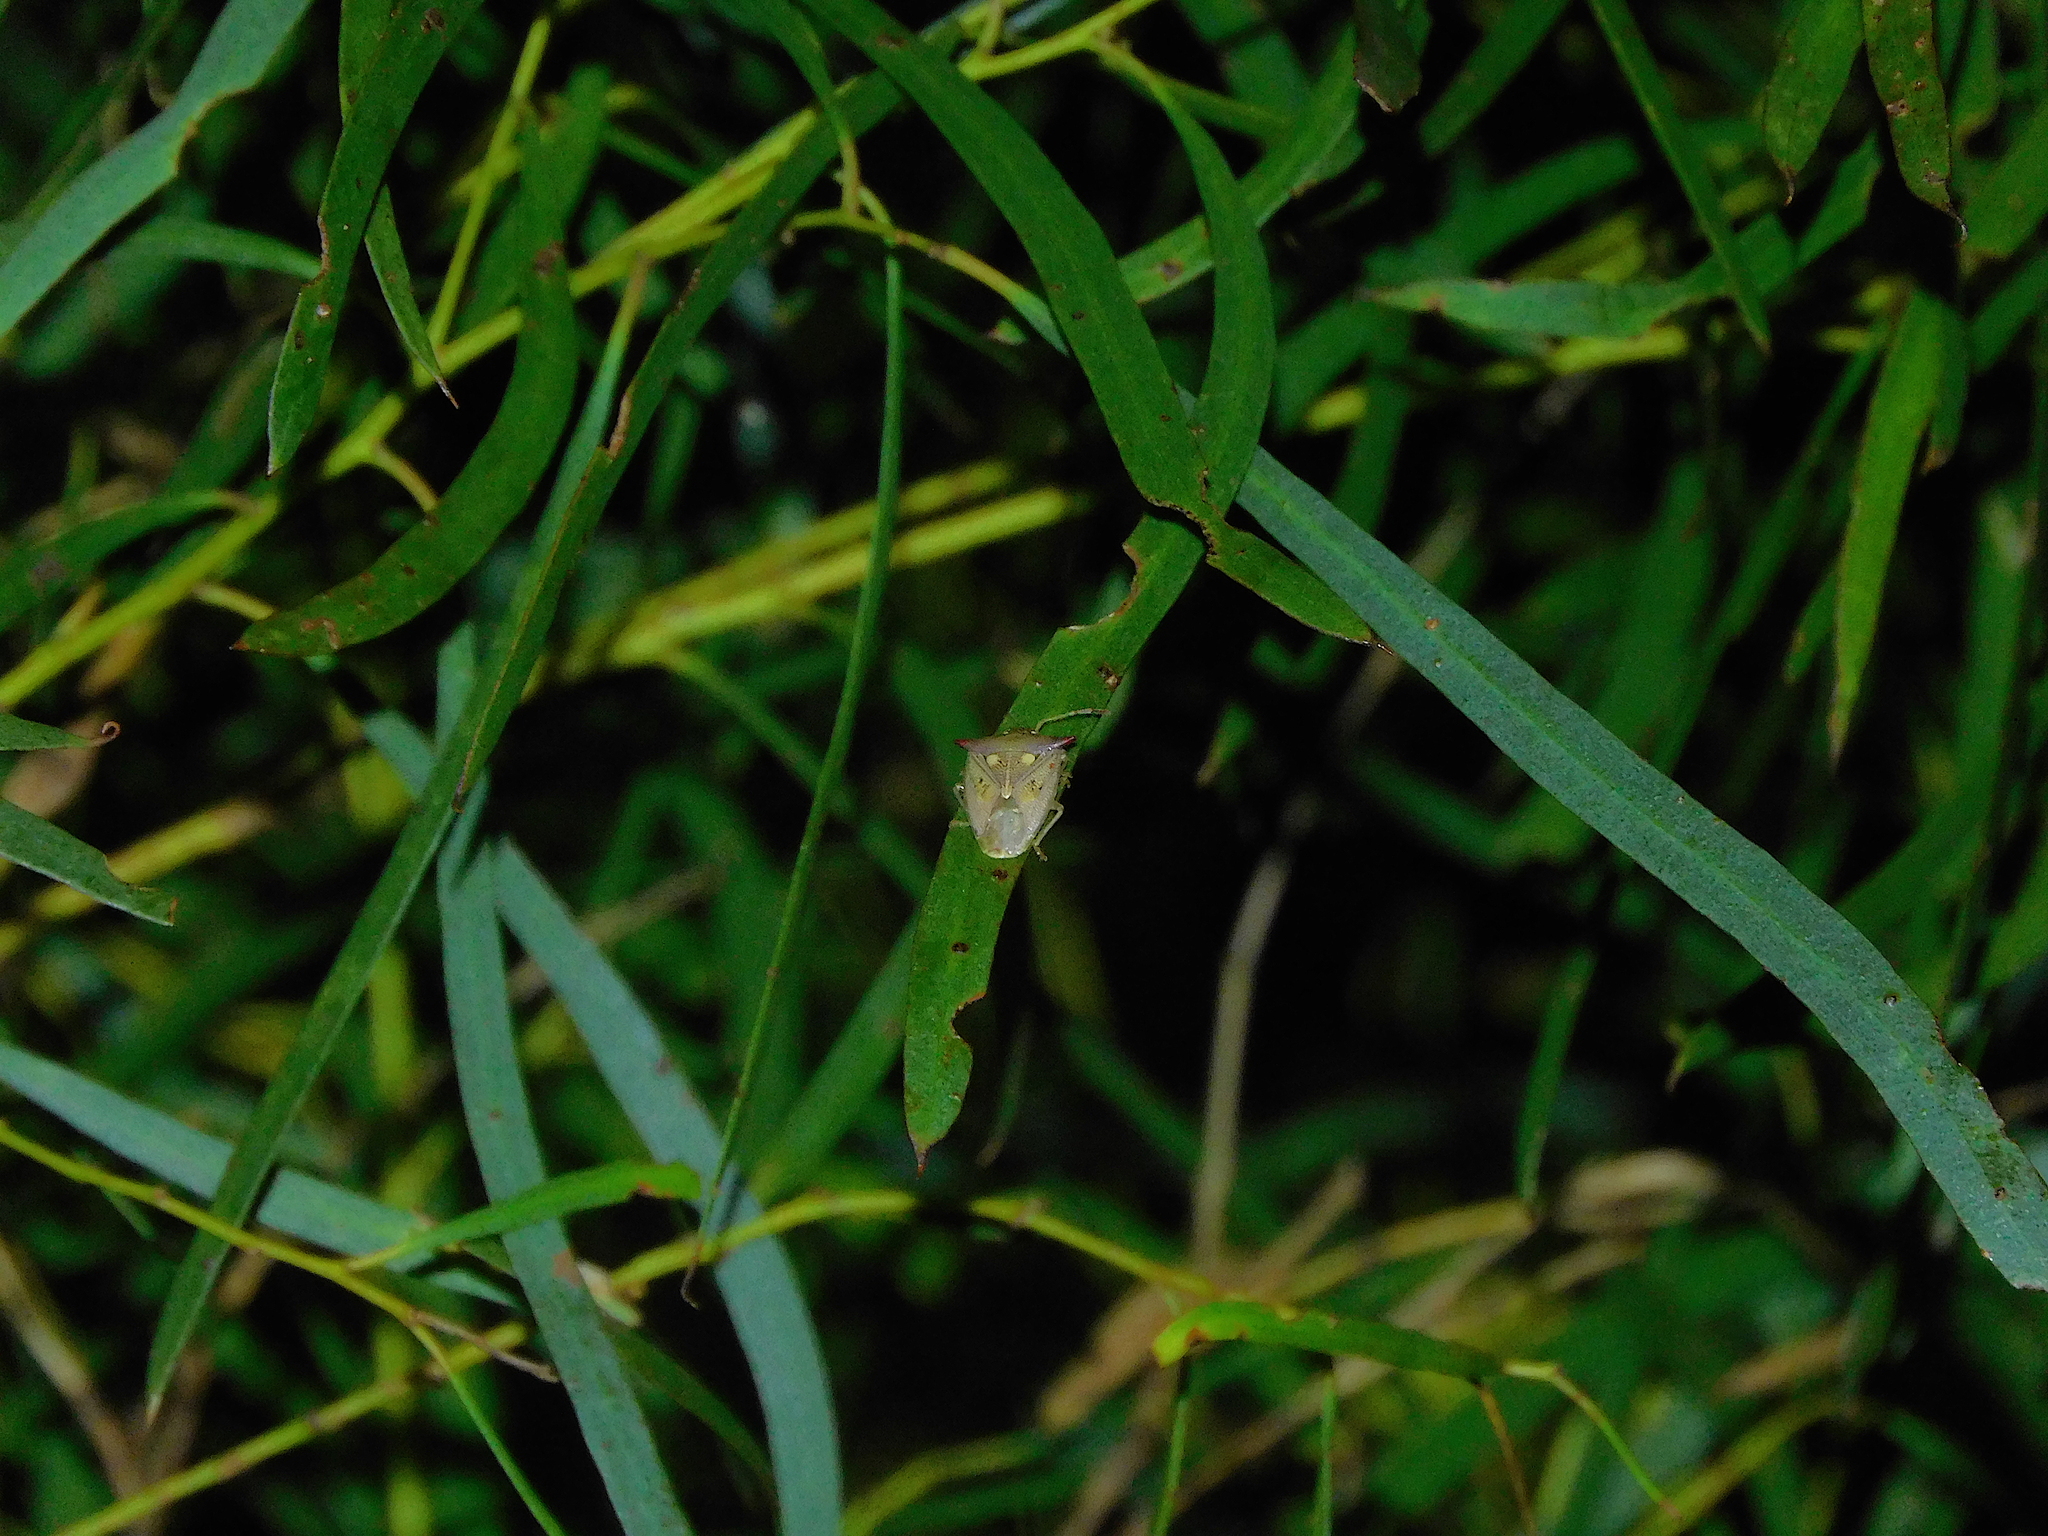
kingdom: Animalia
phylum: Arthropoda
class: Insecta
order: Hemiptera
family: Acanthosomatidae
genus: Hiarchas
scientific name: Hiarchas angularis
